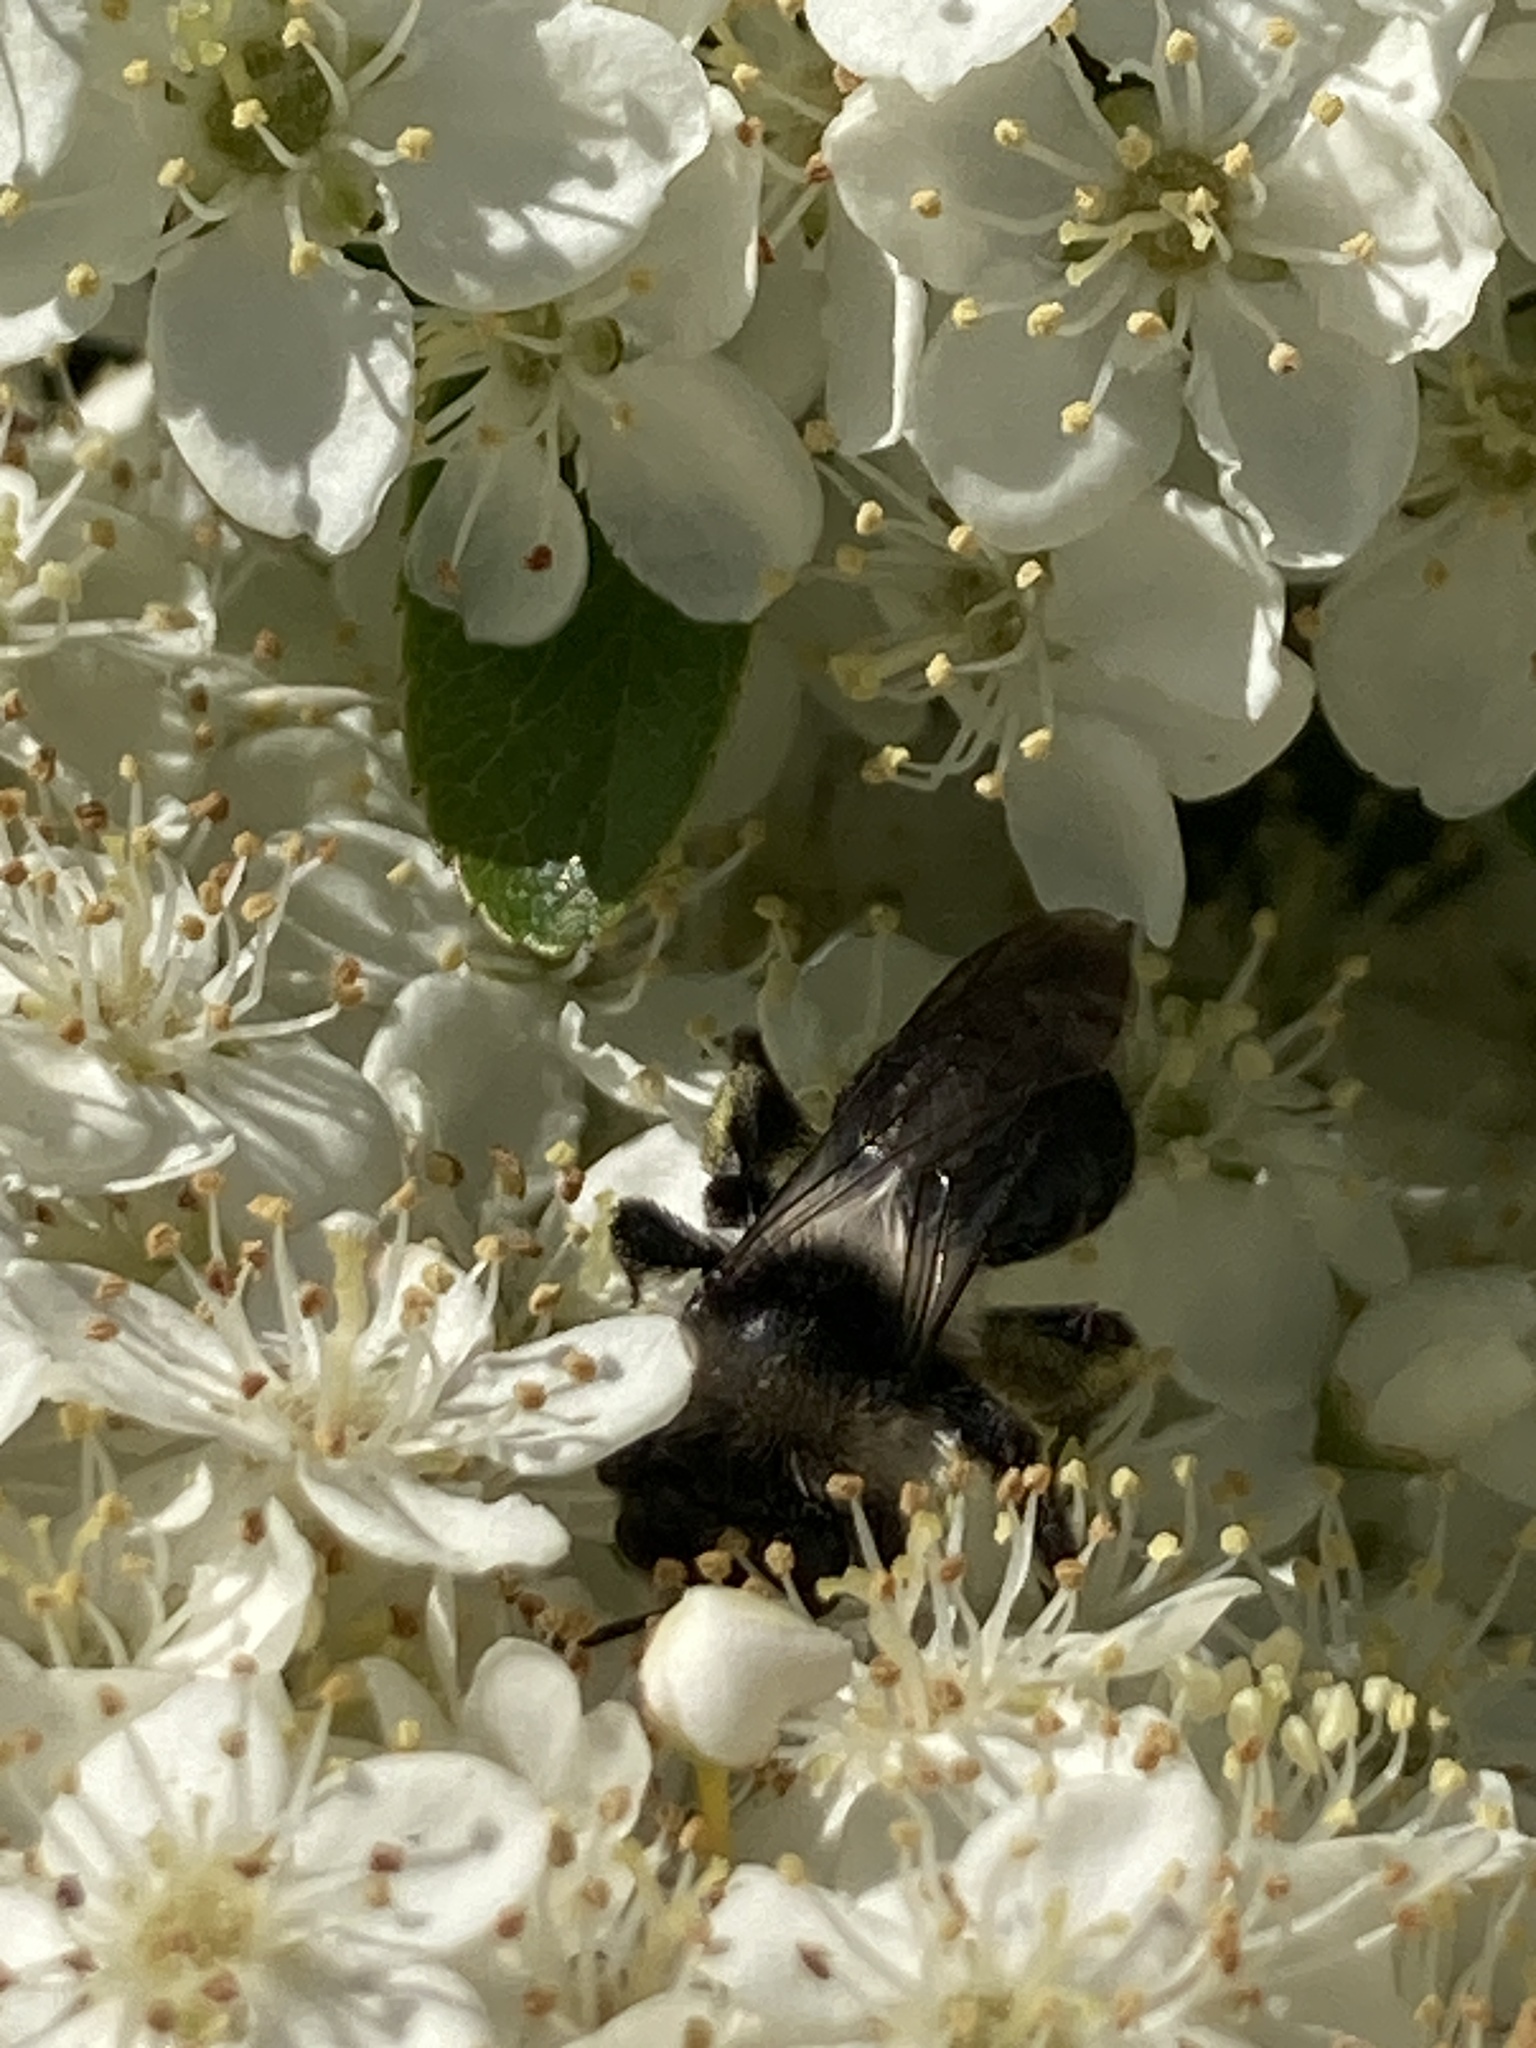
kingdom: Animalia
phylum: Arthropoda
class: Insecta
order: Hymenoptera
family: Andrenidae
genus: Andrena
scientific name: Andrena cineraria
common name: Ashy mining bee
